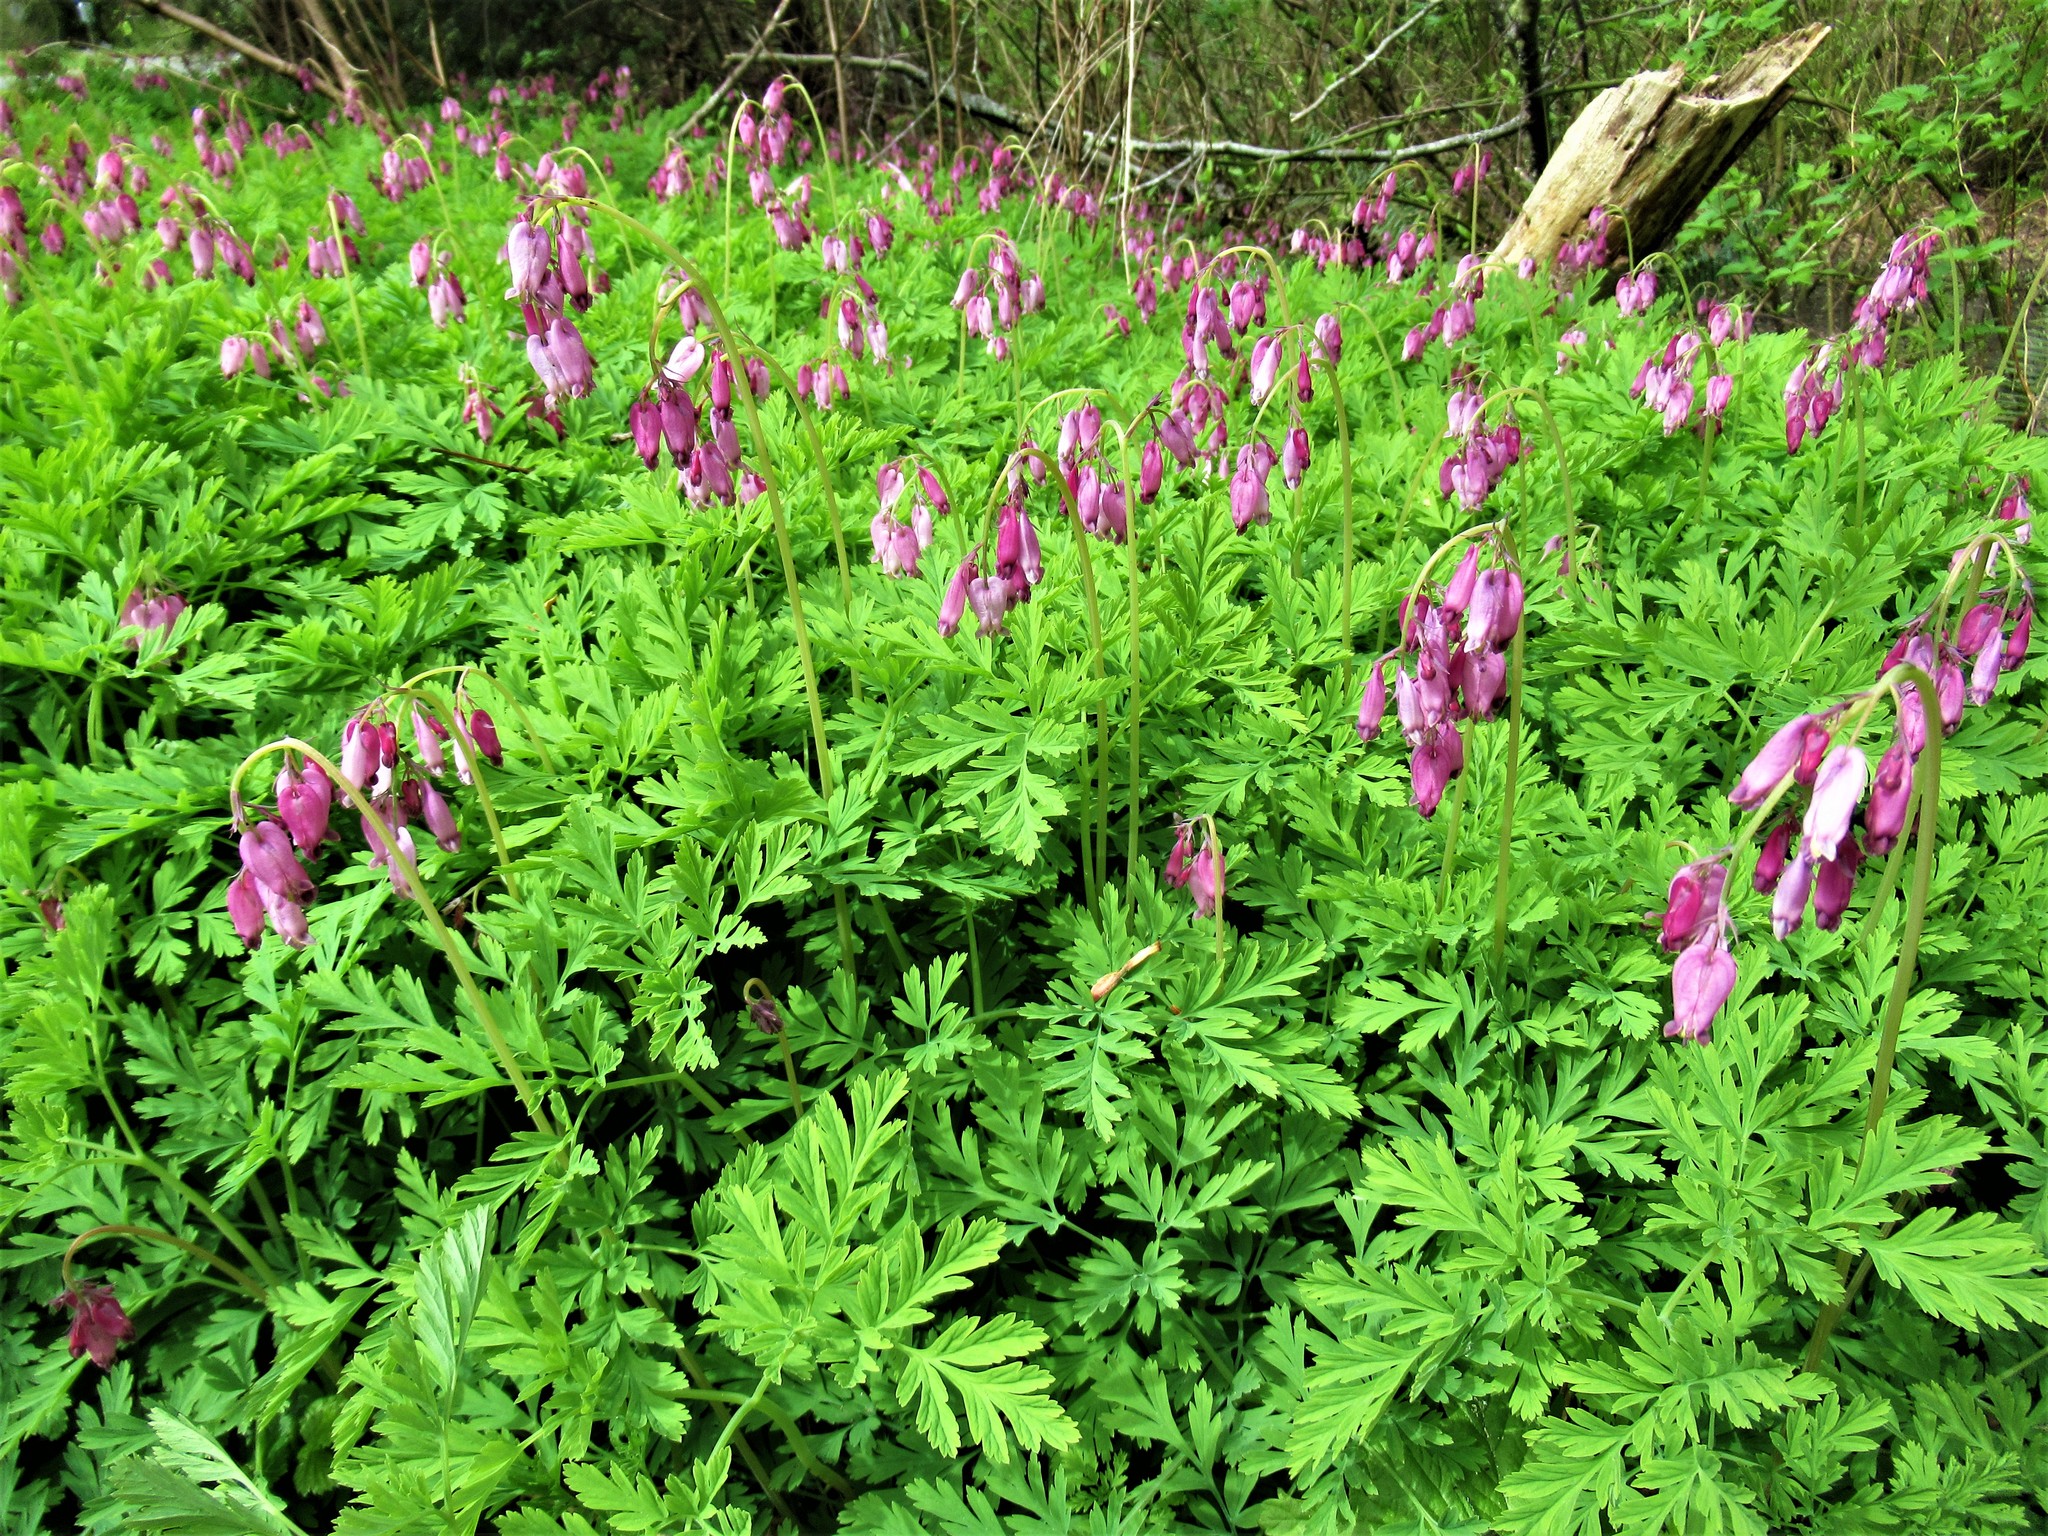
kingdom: Plantae
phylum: Tracheophyta
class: Magnoliopsida
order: Ranunculales
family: Papaveraceae
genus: Dicentra
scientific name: Dicentra formosa
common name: Bleeding-heart
